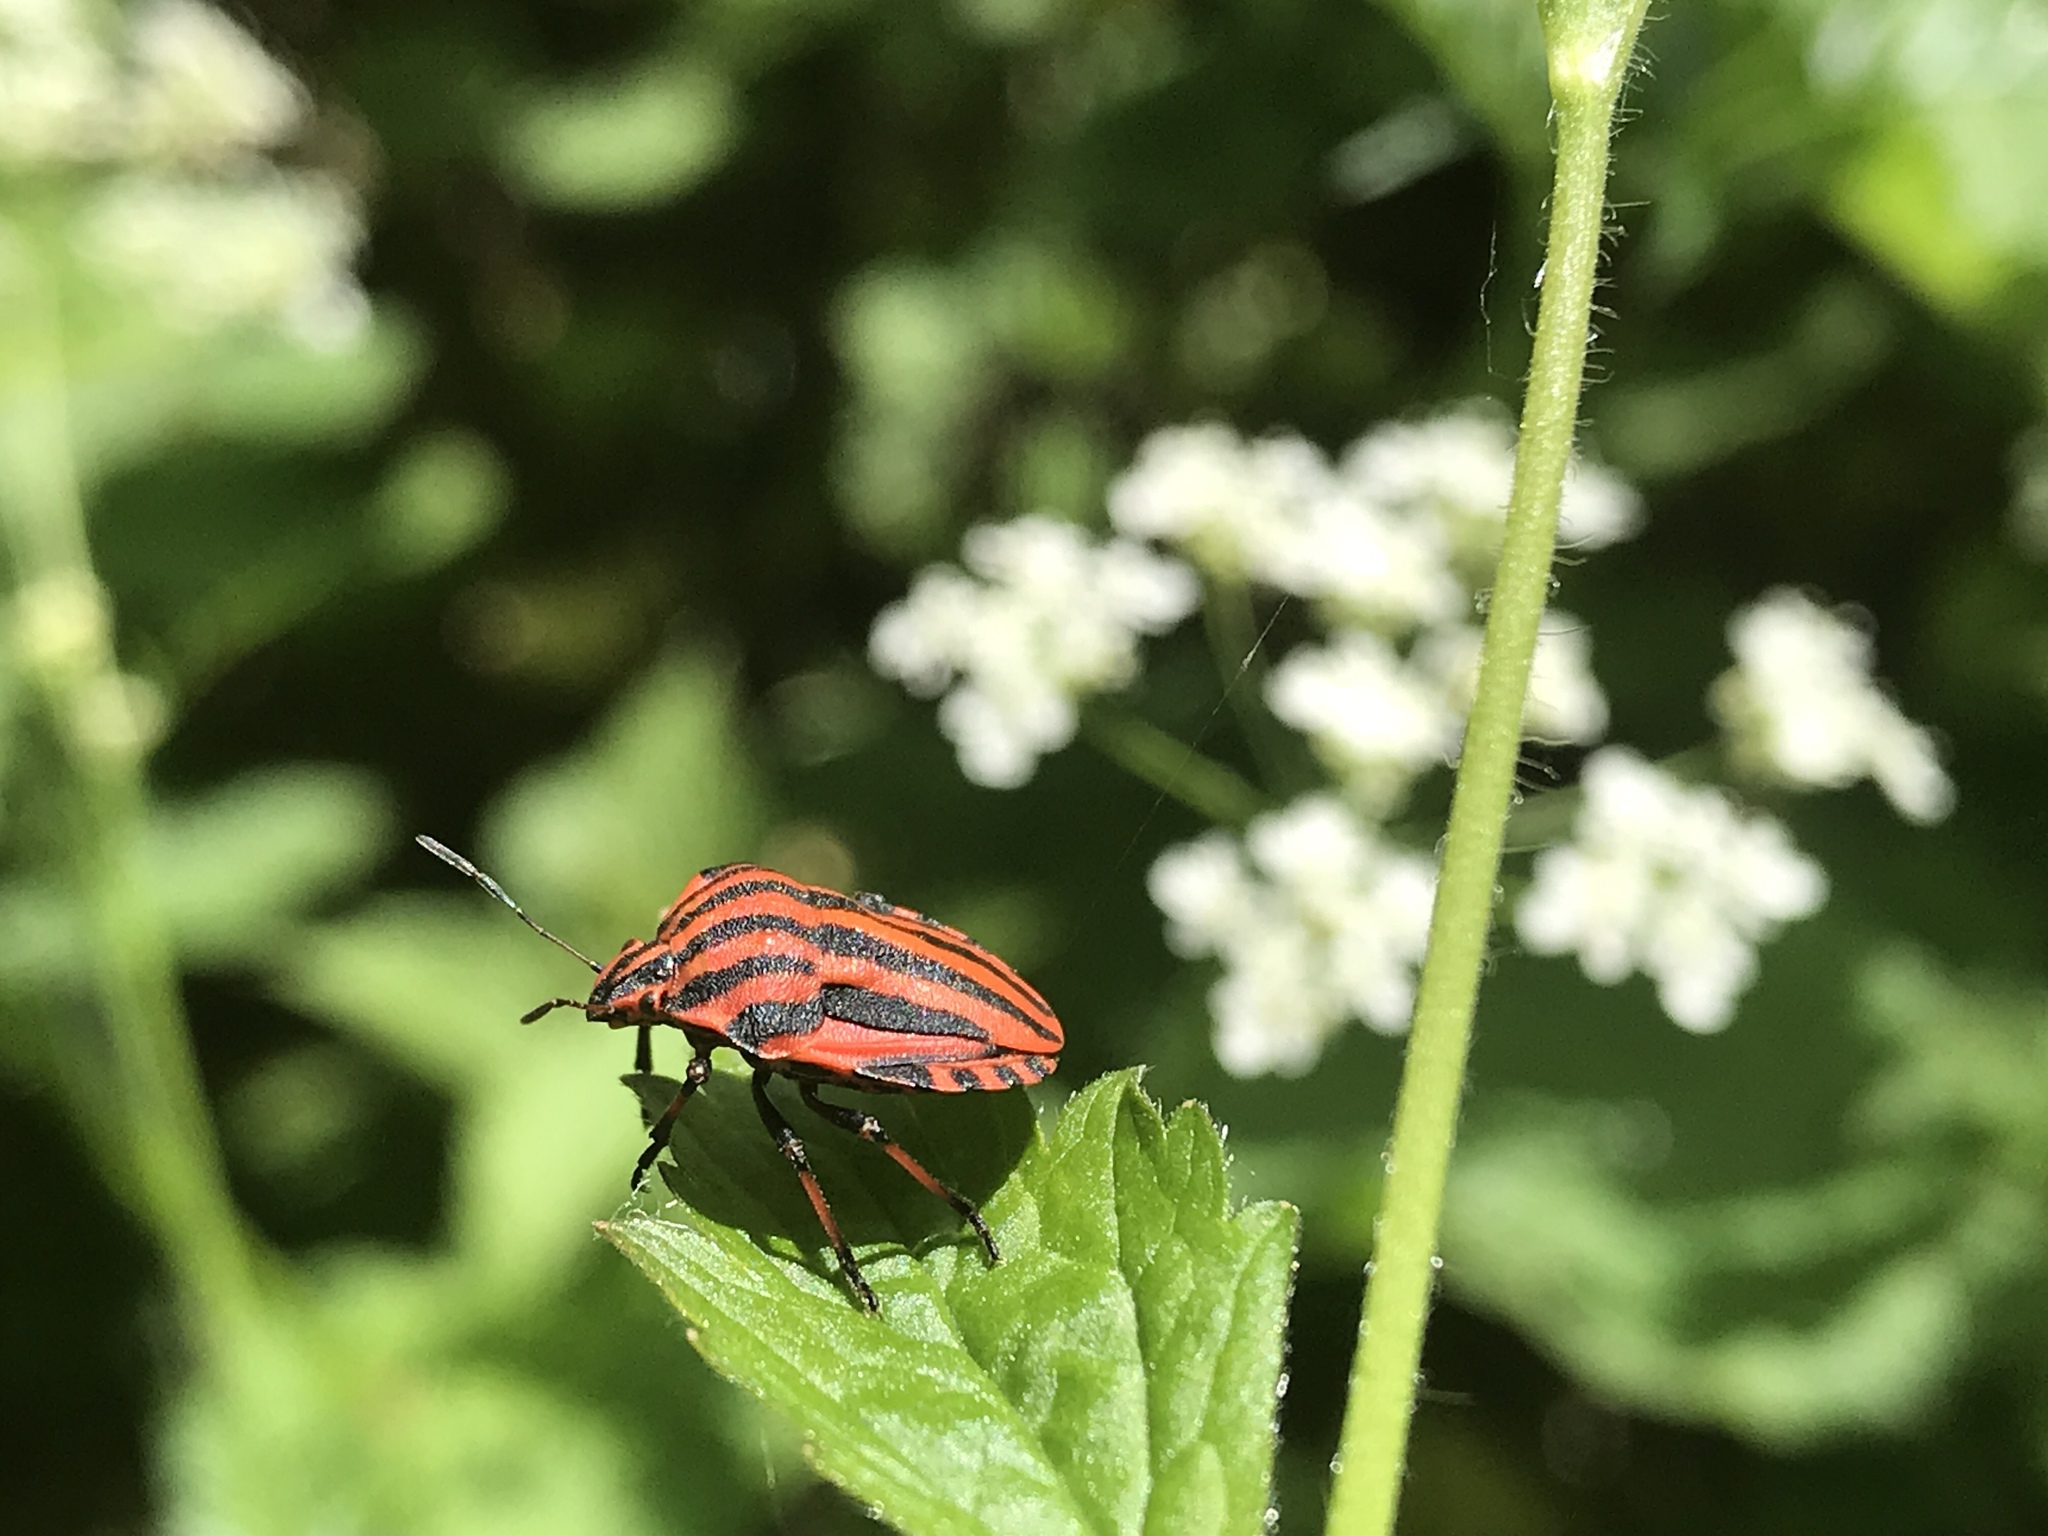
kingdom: Animalia
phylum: Arthropoda
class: Insecta
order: Hemiptera
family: Pentatomidae
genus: Graphosoma
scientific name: Graphosoma italicum
